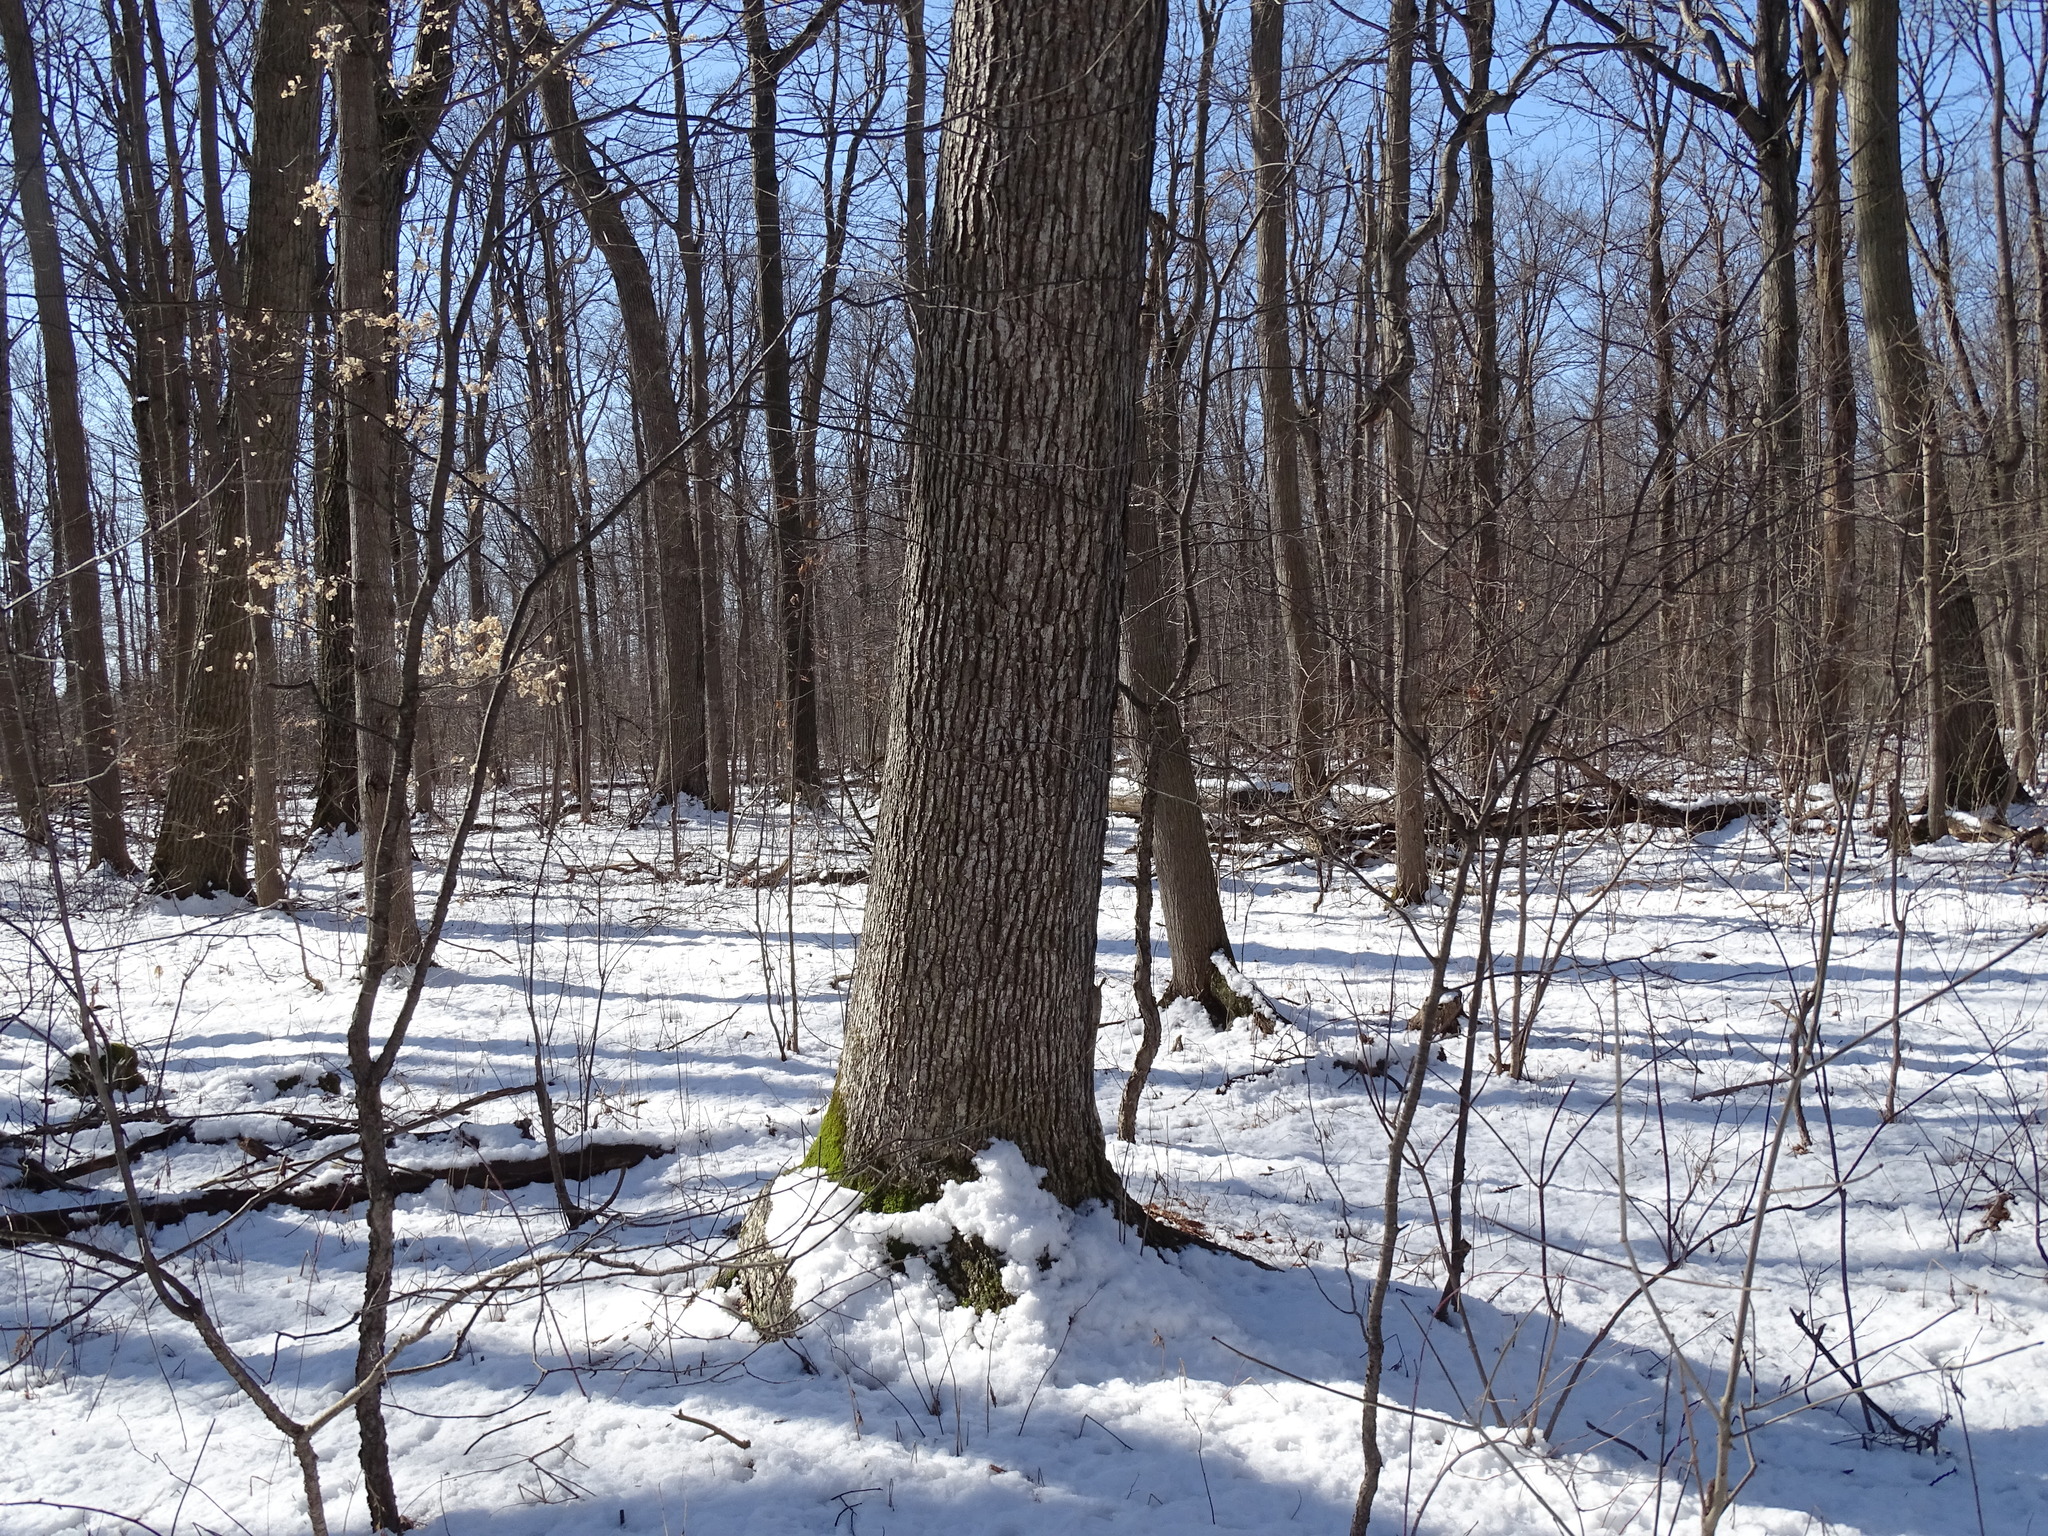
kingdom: Plantae
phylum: Tracheophyta
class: Magnoliopsida
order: Fagales
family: Fagaceae
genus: Quercus
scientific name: Quercus alba
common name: White oak
